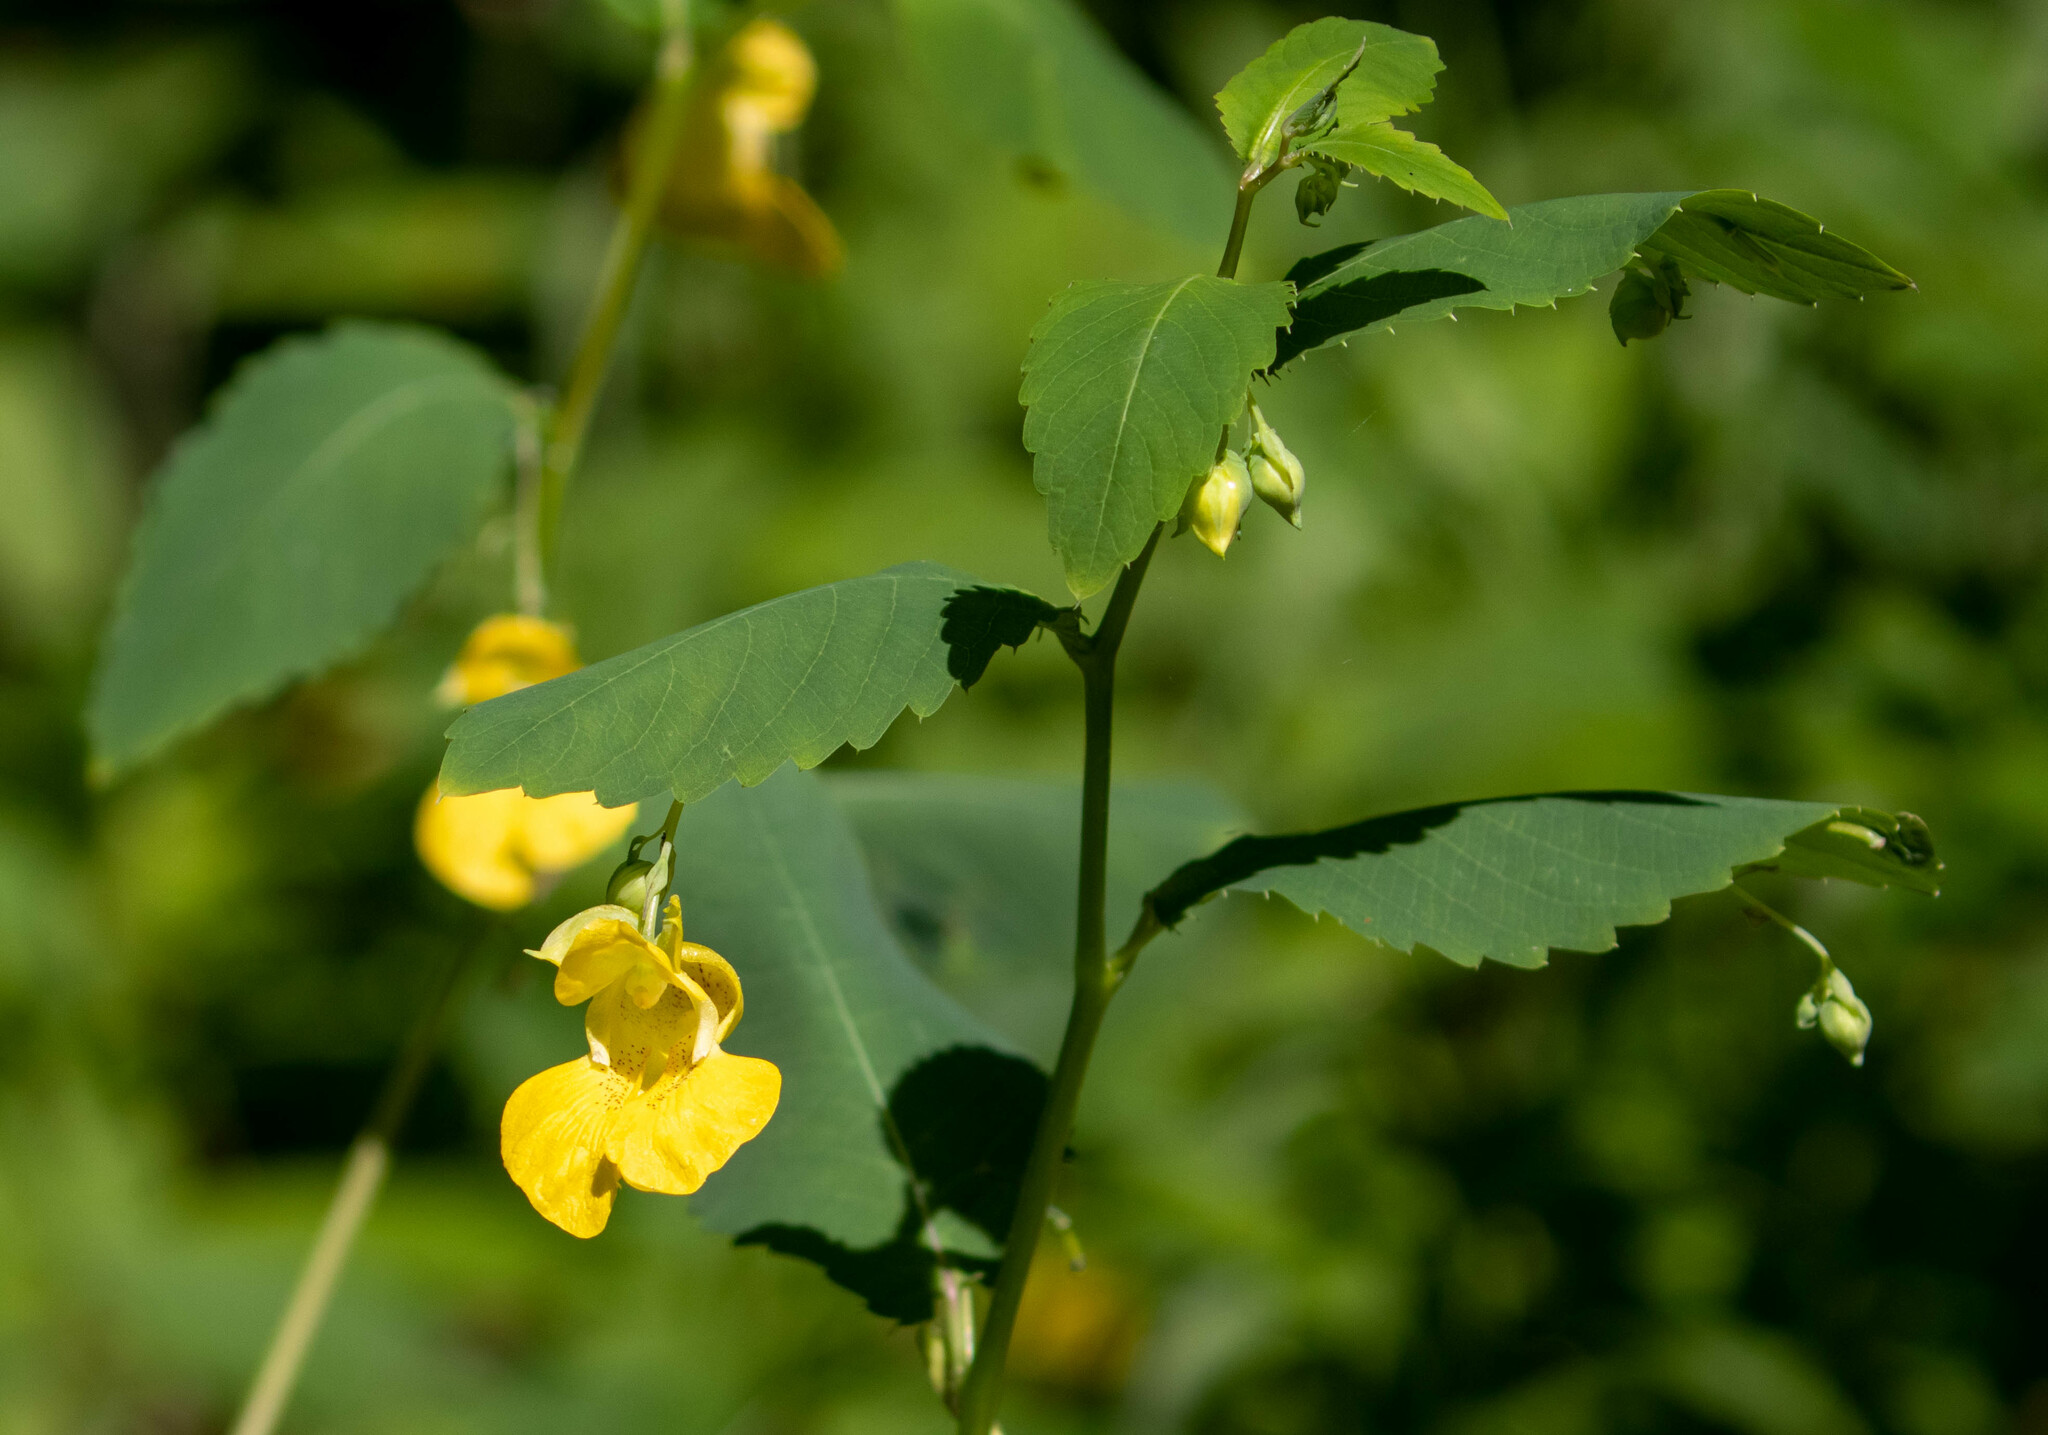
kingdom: Plantae
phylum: Tracheophyta
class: Magnoliopsida
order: Ericales
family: Balsaminaceae
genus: Impatiens
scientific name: Impatiens pallida
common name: Pale snapweed
